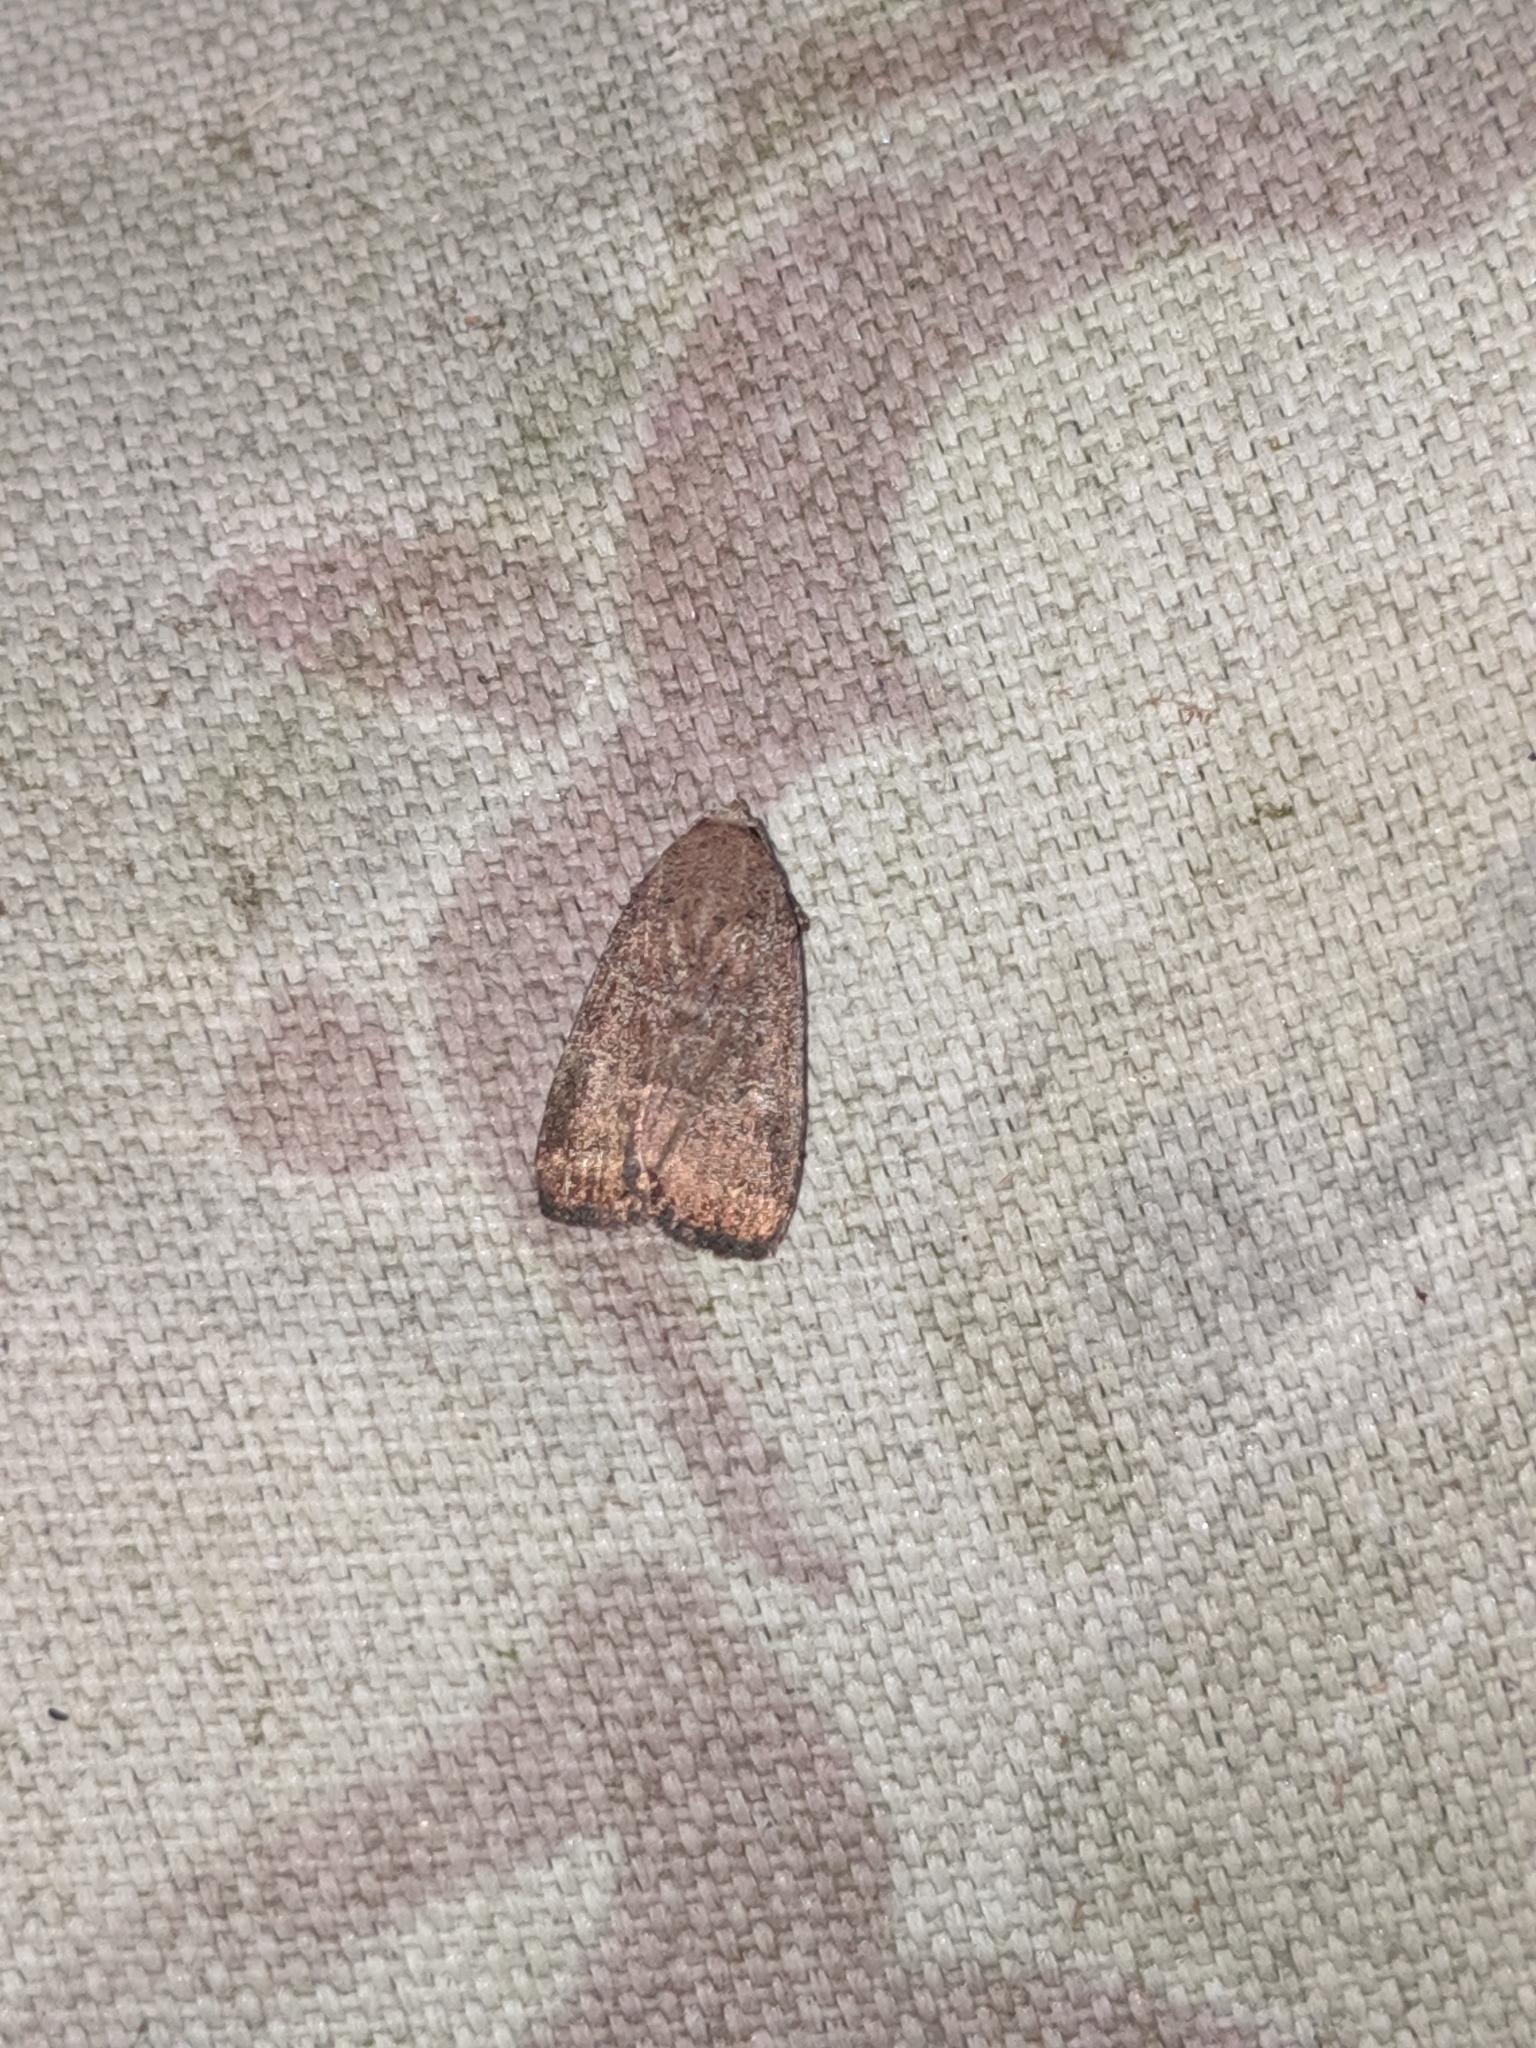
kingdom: Animalia
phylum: Arthropoda
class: Insecta
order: Lepidoptera
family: Noctuidae
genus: Elaphria
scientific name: Elaphria grata
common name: Grateful midget moth
